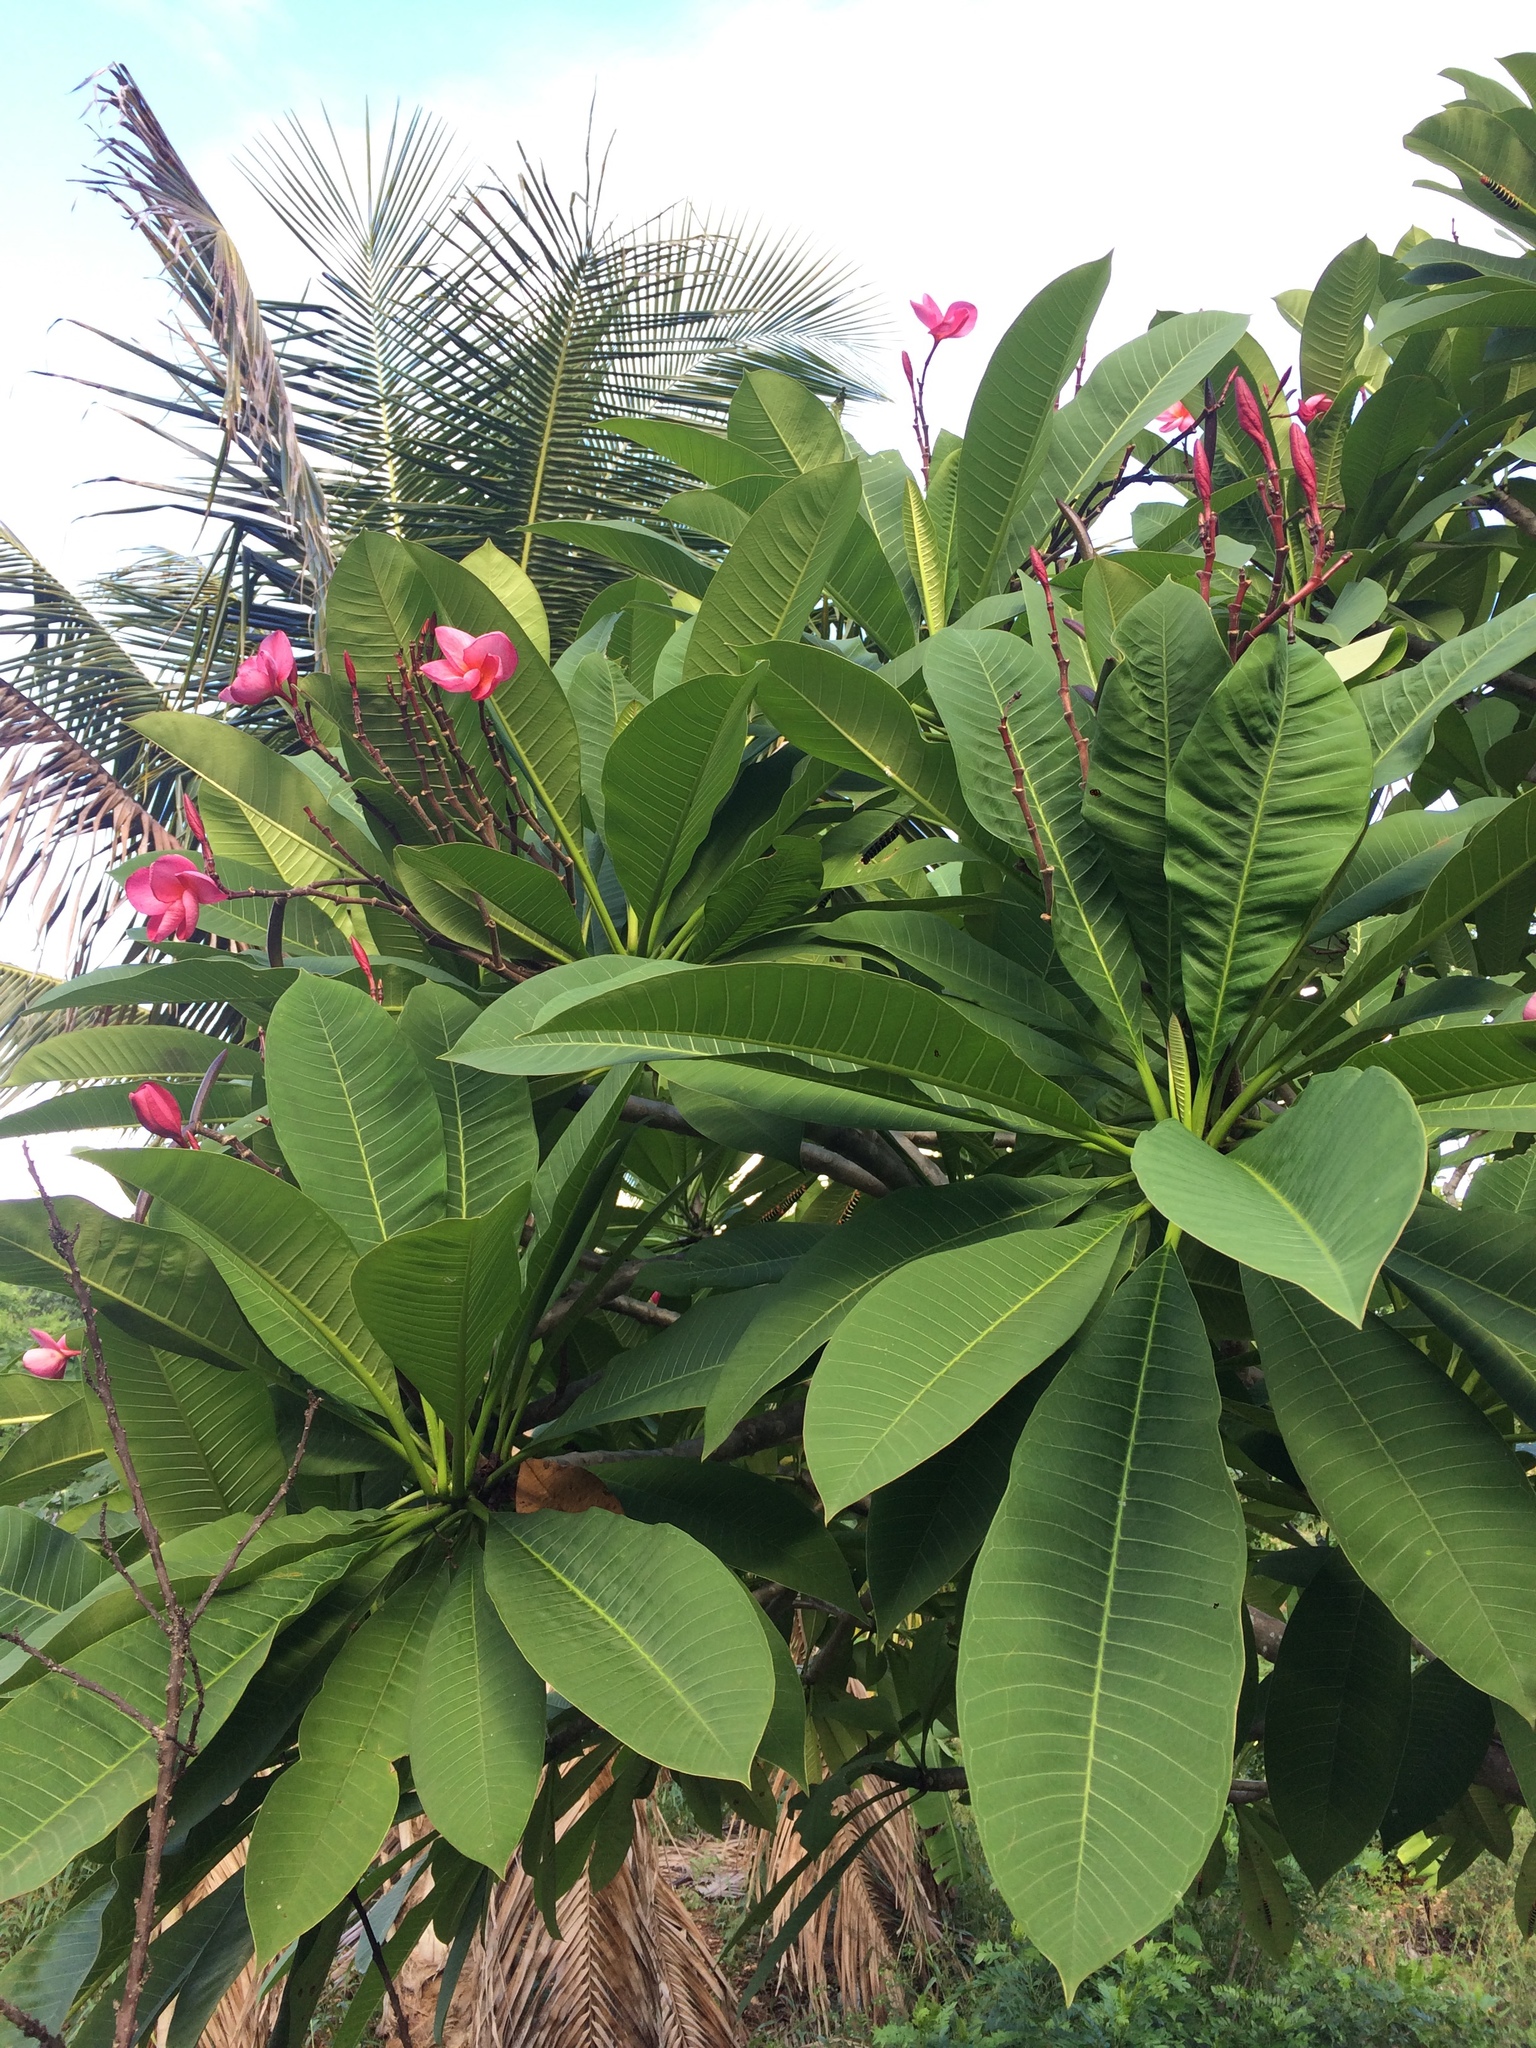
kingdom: Plantae
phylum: Tracheophyta
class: Magnoliopsida
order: Gentianales
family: Apocynaceae
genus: Plumeria
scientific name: Plumeria rubra
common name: Pagoda-tree
